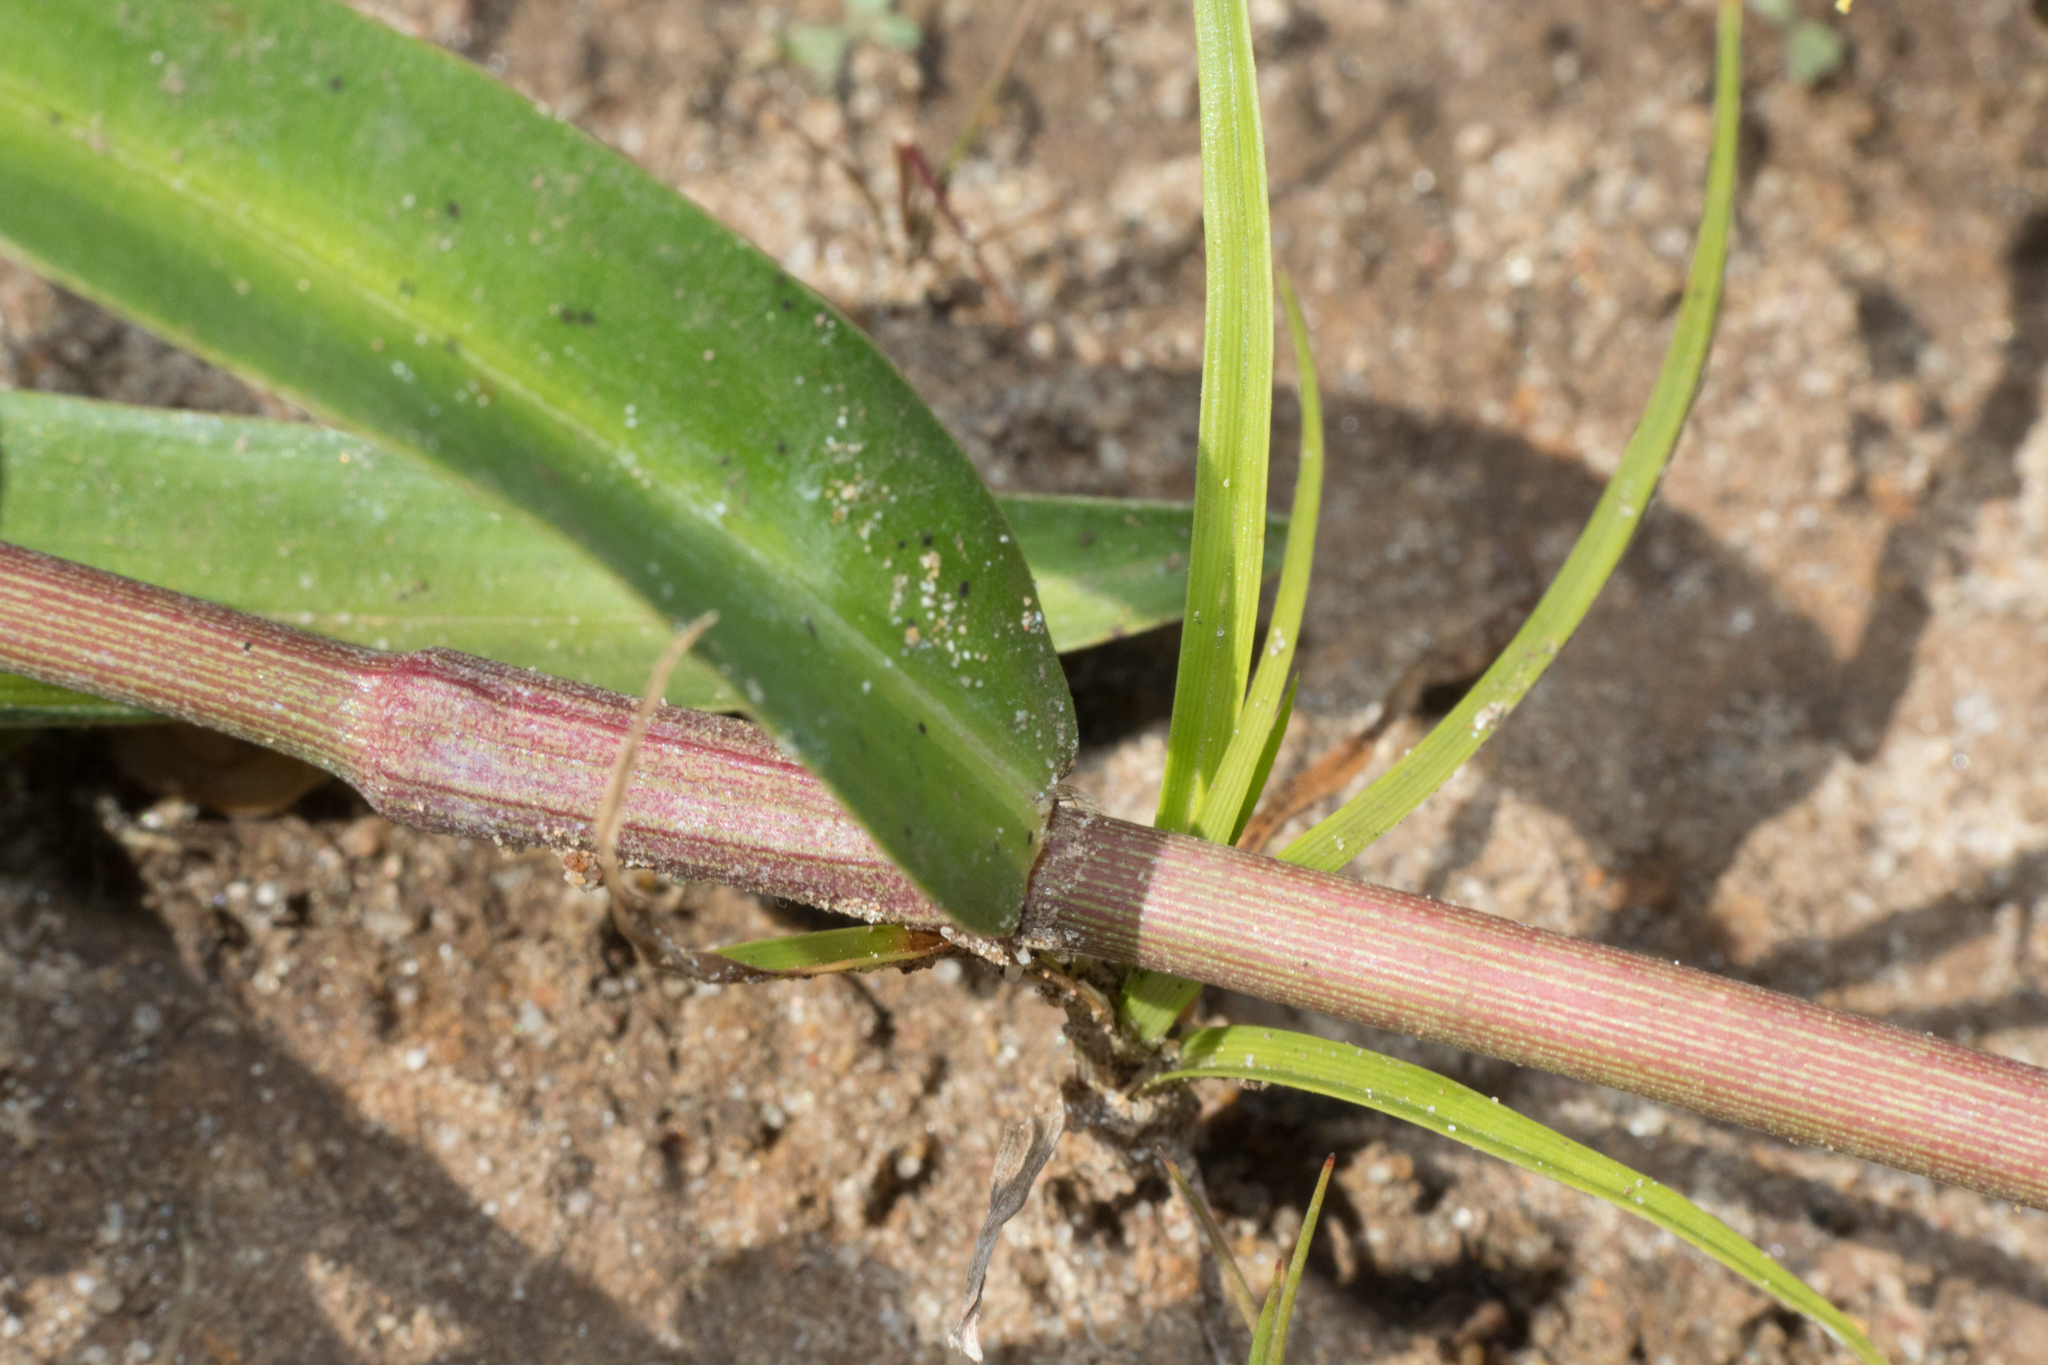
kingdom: Plantae
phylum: Tracheophyta
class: Liliopsida
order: Commelinales
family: Commelinaceae
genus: Commelina
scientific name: Commelina diffusa
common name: Climbing dayflower
